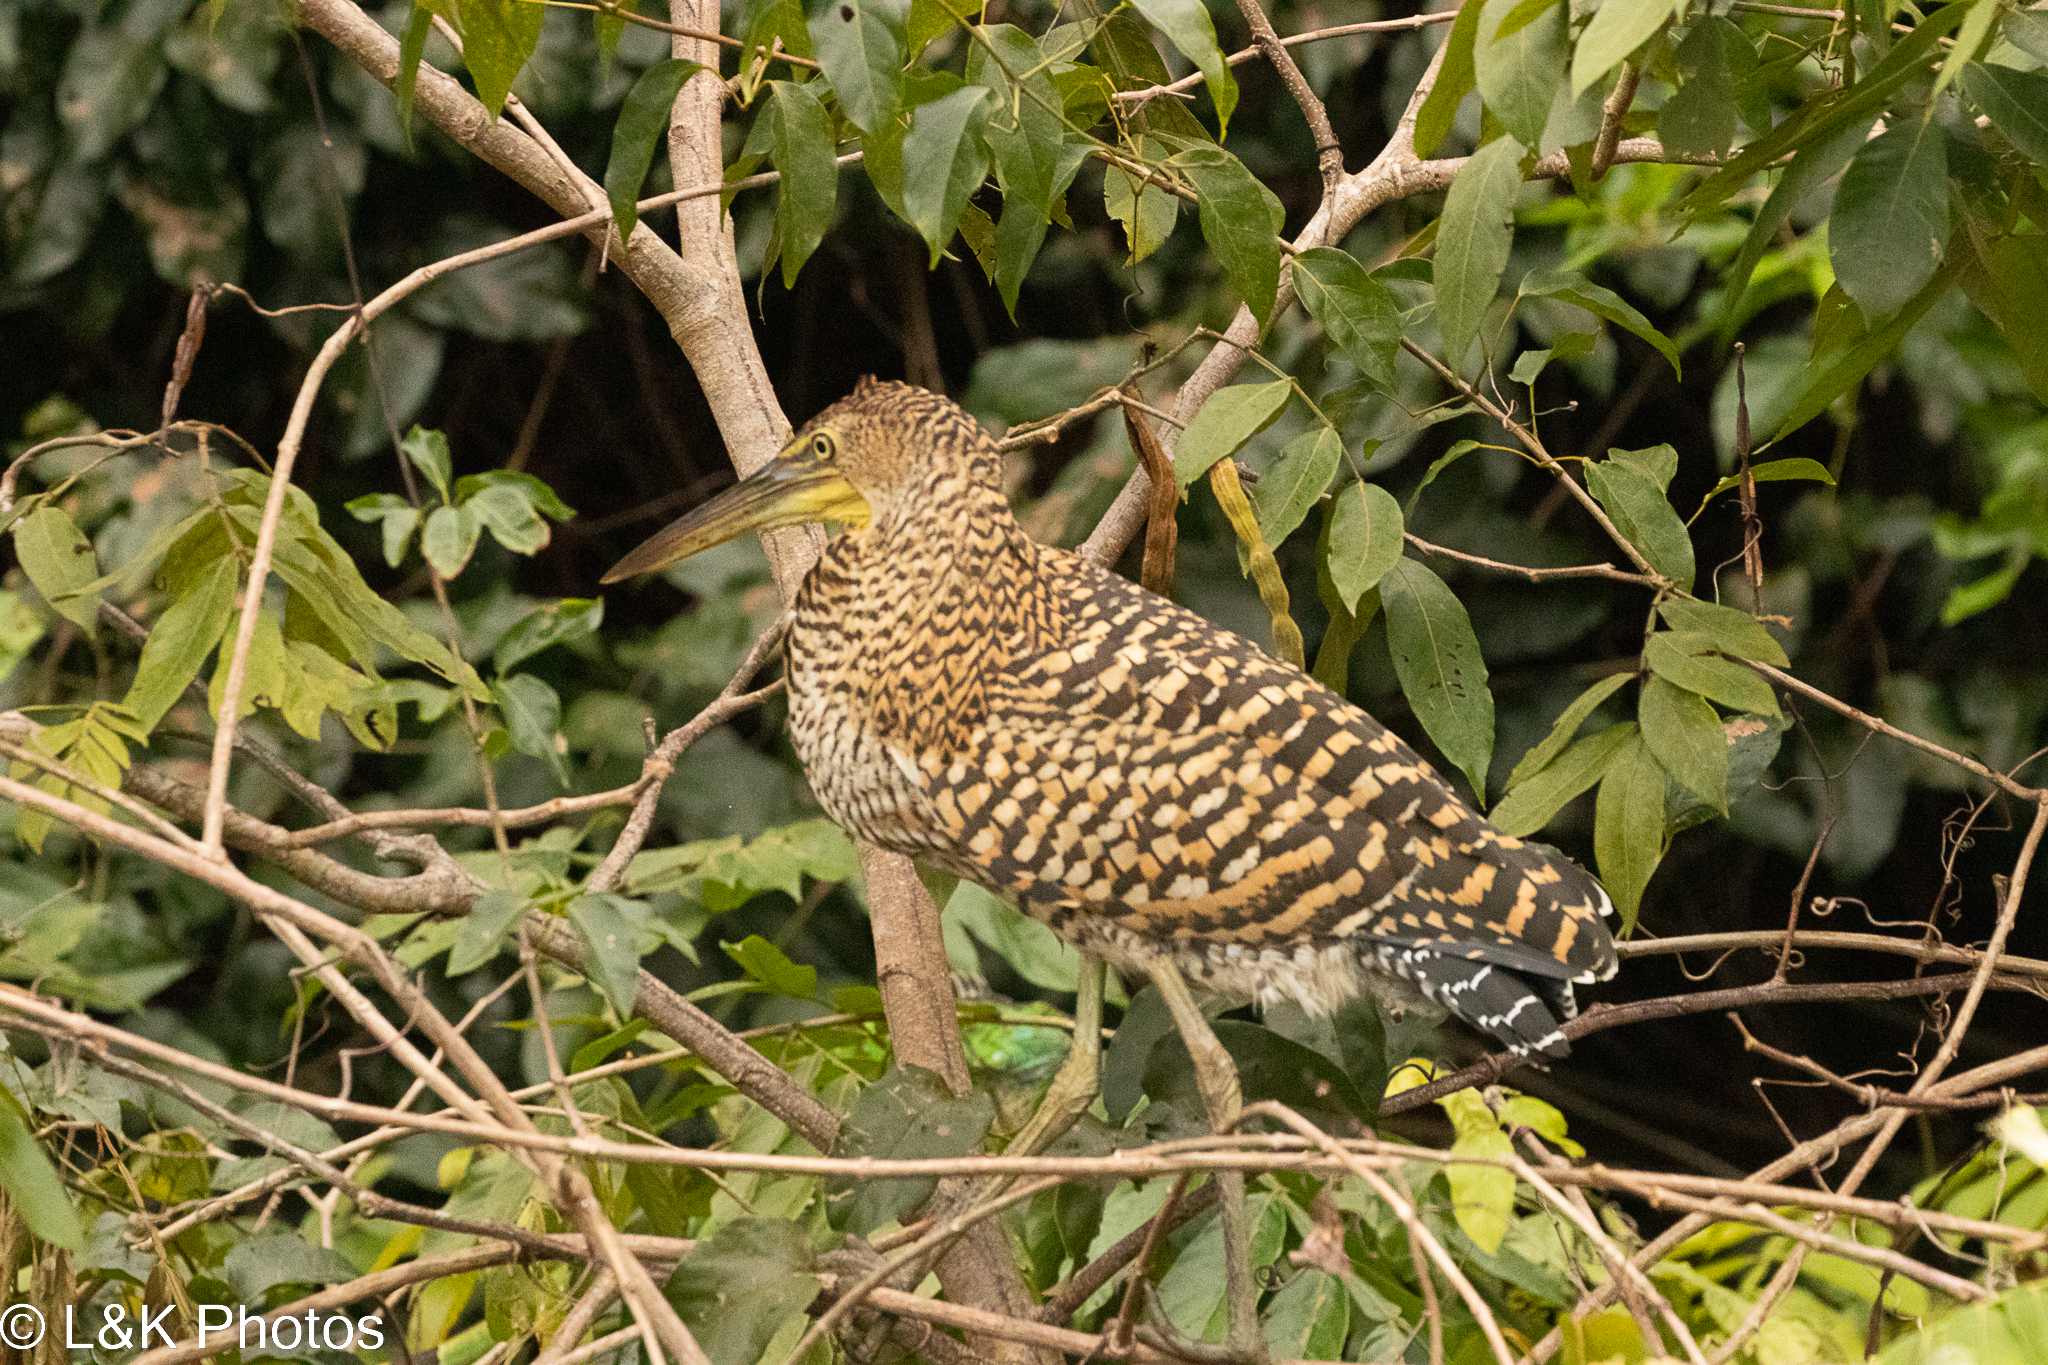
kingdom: Animalia
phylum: Chordata
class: Aves
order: Pelecaniformes
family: Ardeidae
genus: Tigrisoma
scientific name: Tigrisoma mexicanum
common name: Bare-throated tiger-heron
